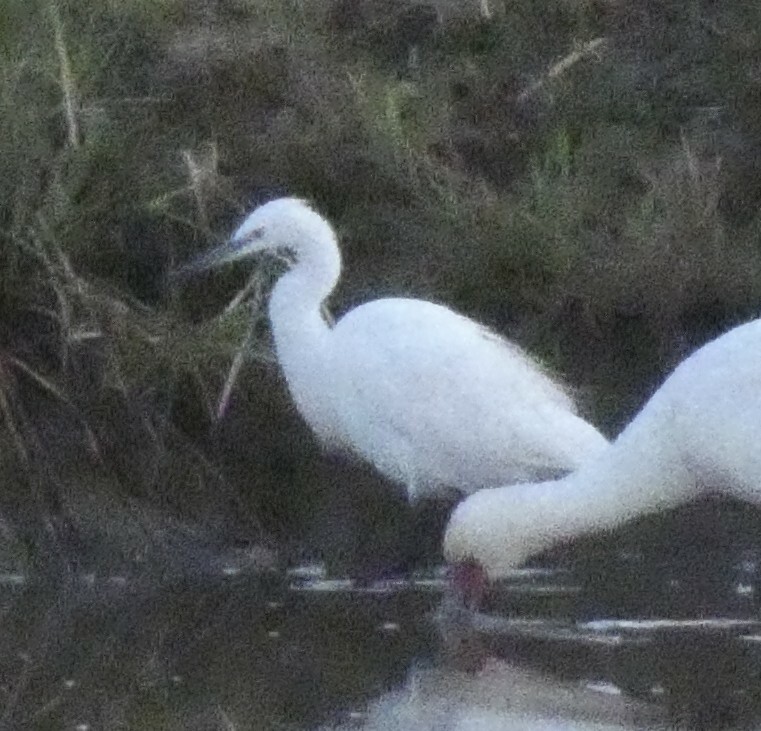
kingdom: Animalia
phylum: Chordata
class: Aves
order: Pelecaniformes
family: Ardeidae
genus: Egretta
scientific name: Egretta garzetta
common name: Little egret
